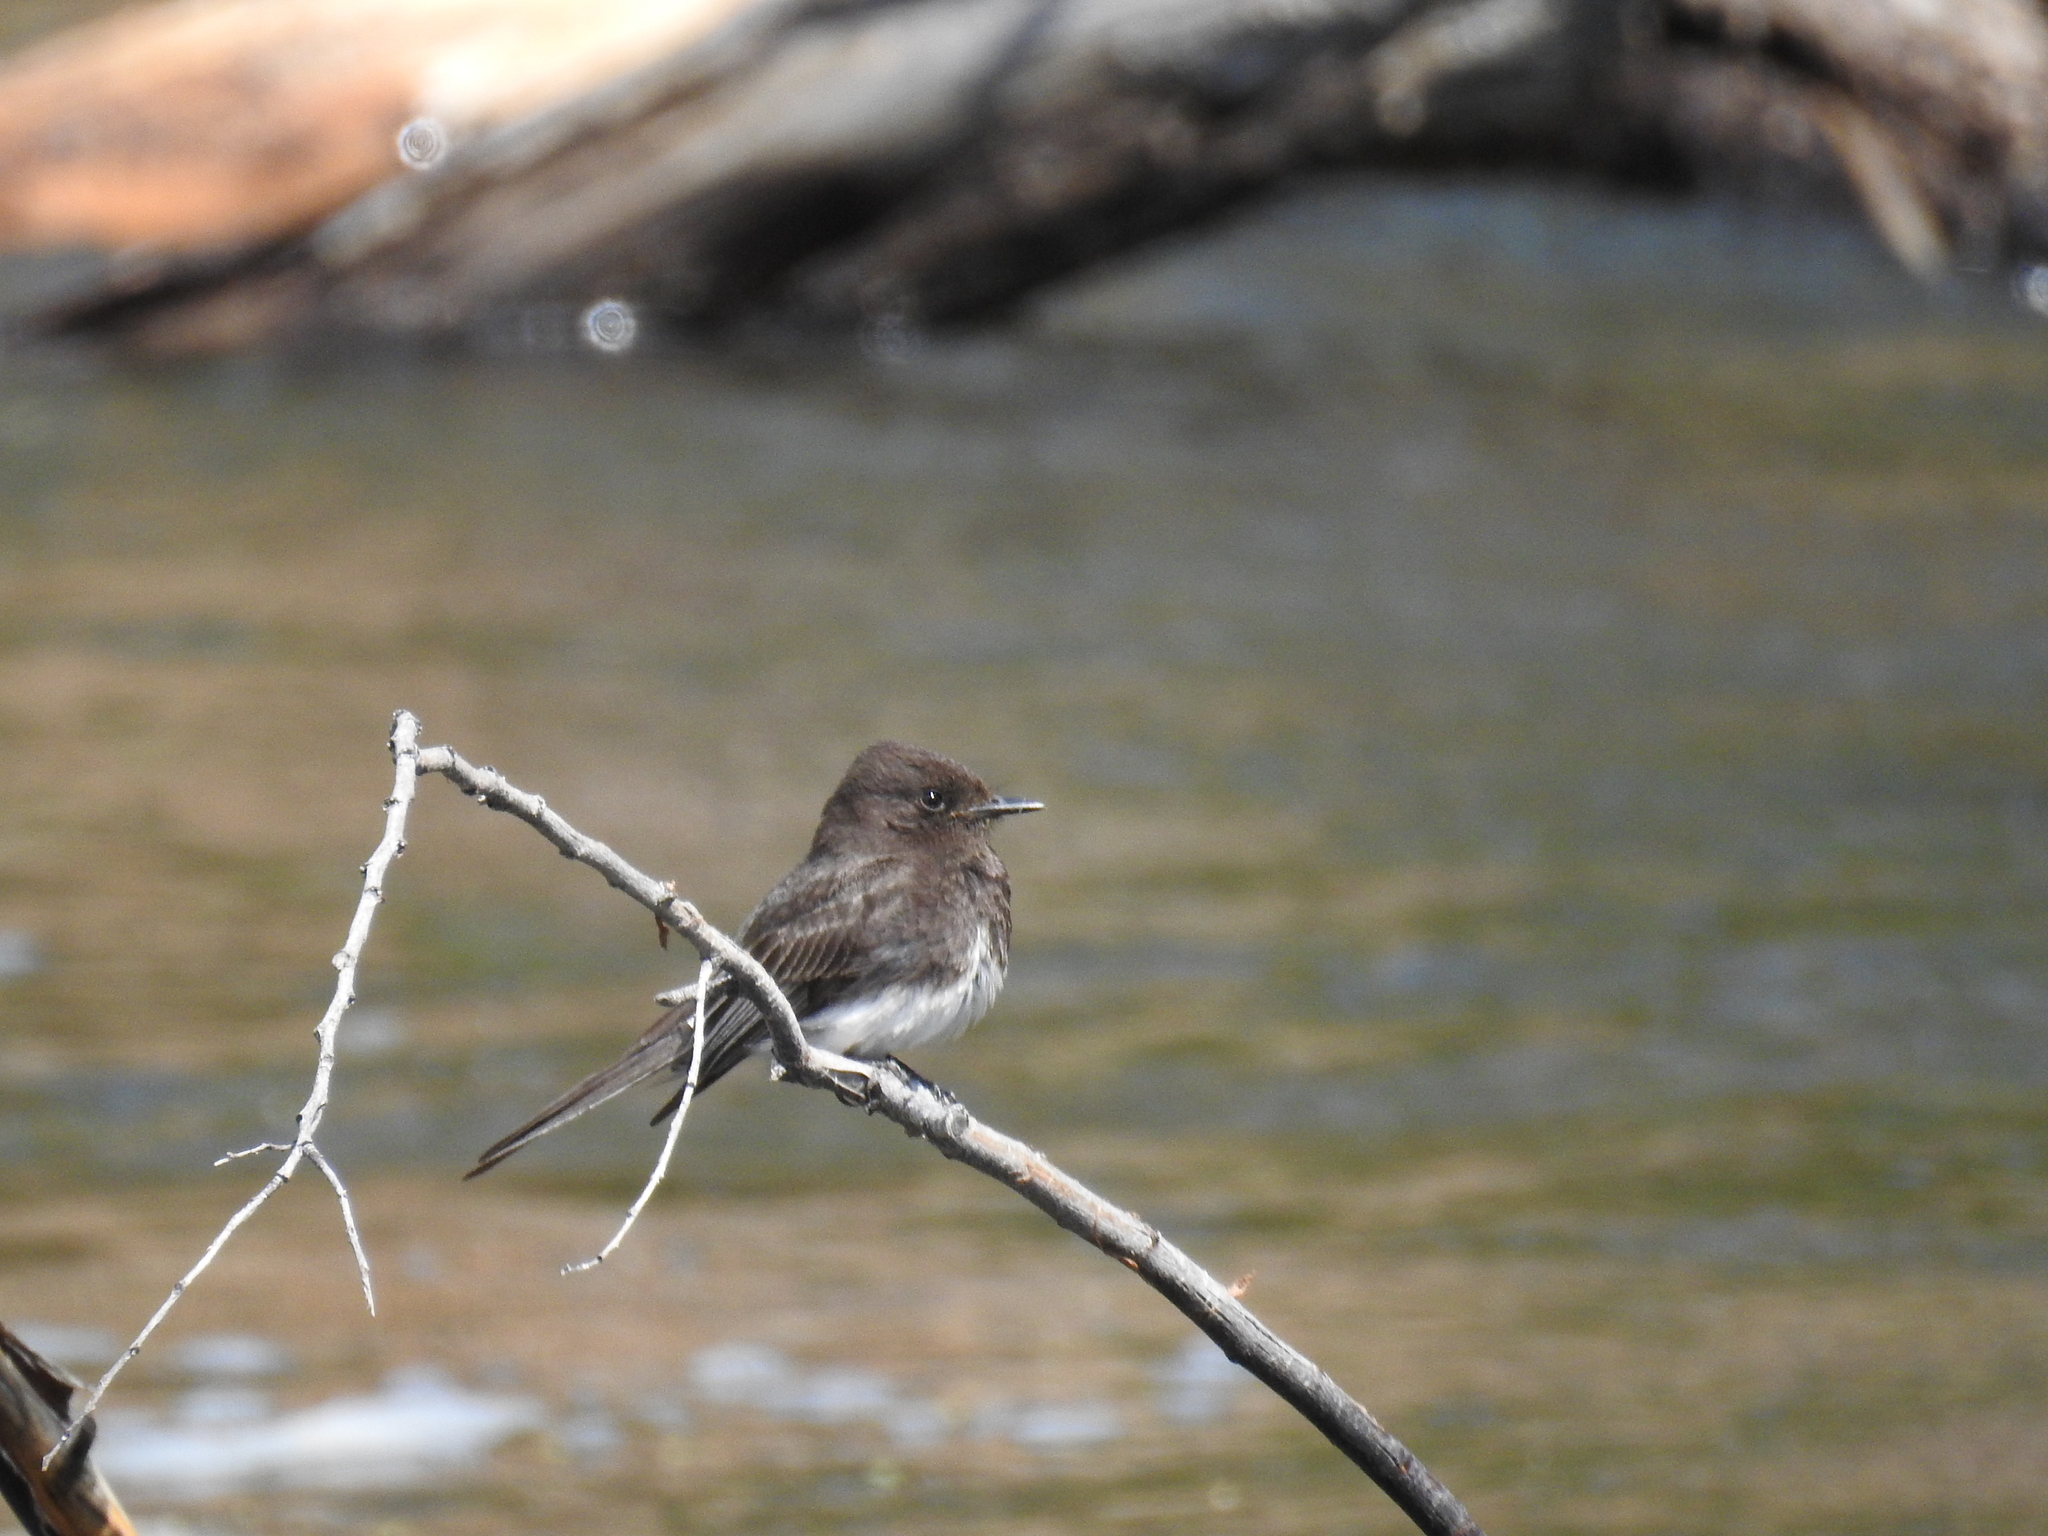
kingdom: Animalia
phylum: Chordata
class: Aves
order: Passeriformes
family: Tyrannidae
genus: Sayornis
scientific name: Sayornis nigricans
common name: Black phoebe
